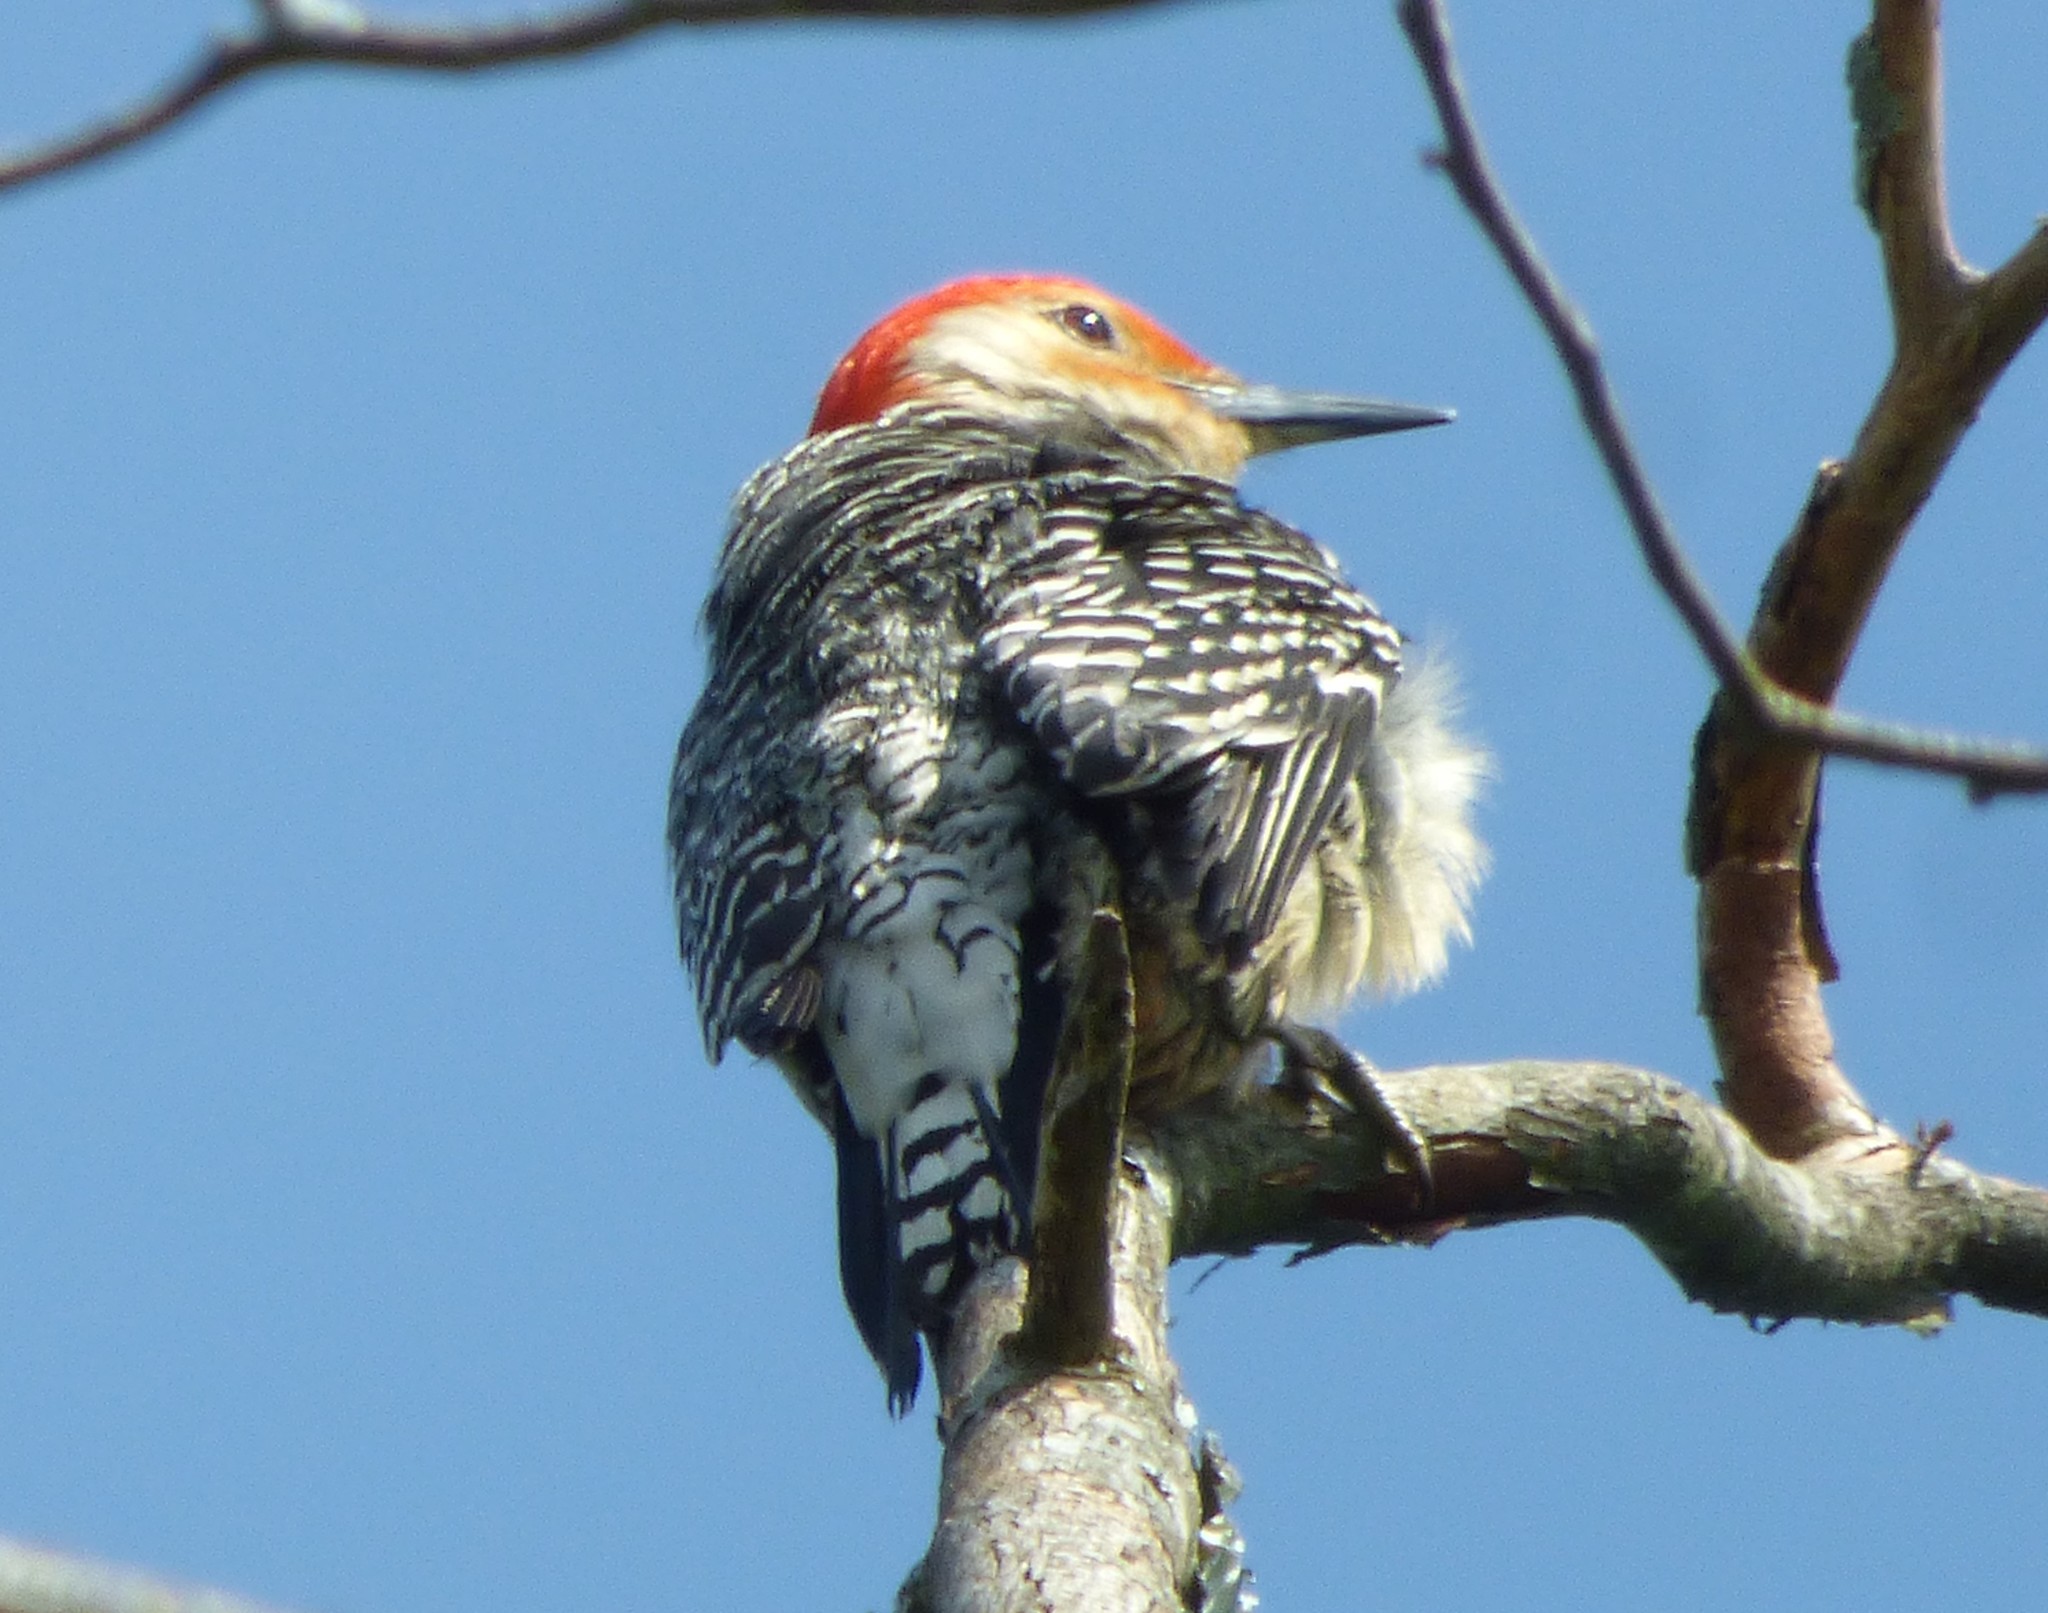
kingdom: Animalia
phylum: Chordata
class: Aves
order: Piciformes
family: Picidae
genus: Melanerpes
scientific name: Melanerpes carolinus
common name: Red-bellied woodpecker
